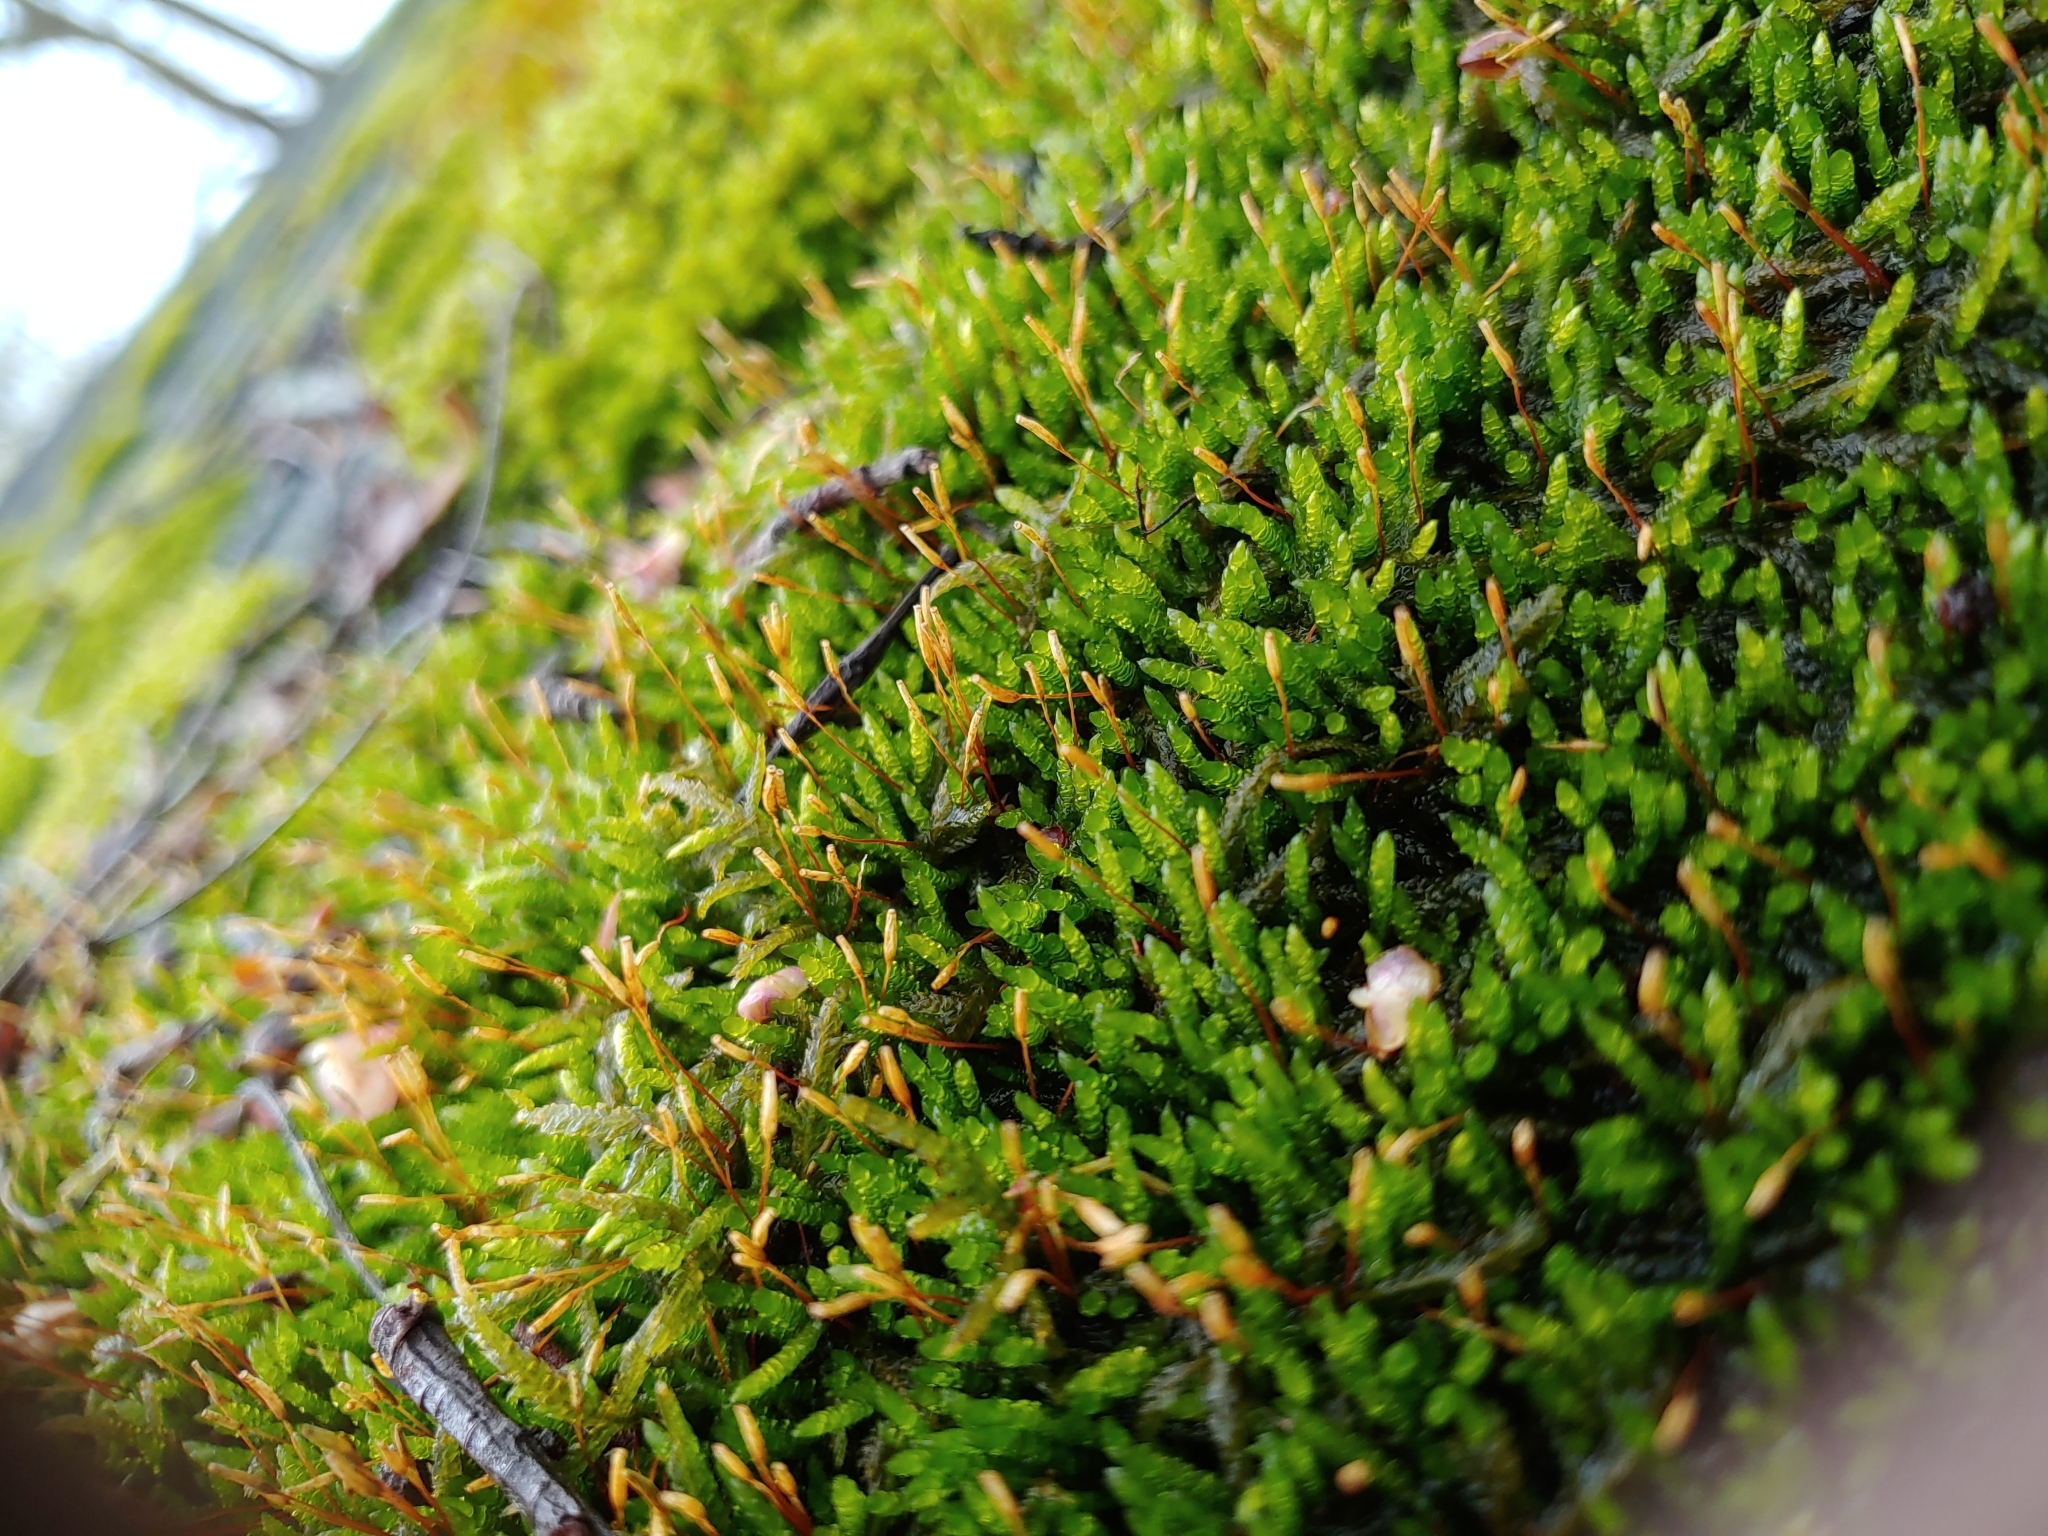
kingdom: Plantae
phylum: Bryophyta
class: Bryopsida
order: Hypnales
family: Leskeaceae
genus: Leskea
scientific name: Leskea polycarpa
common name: Many-fruited leske's moss
